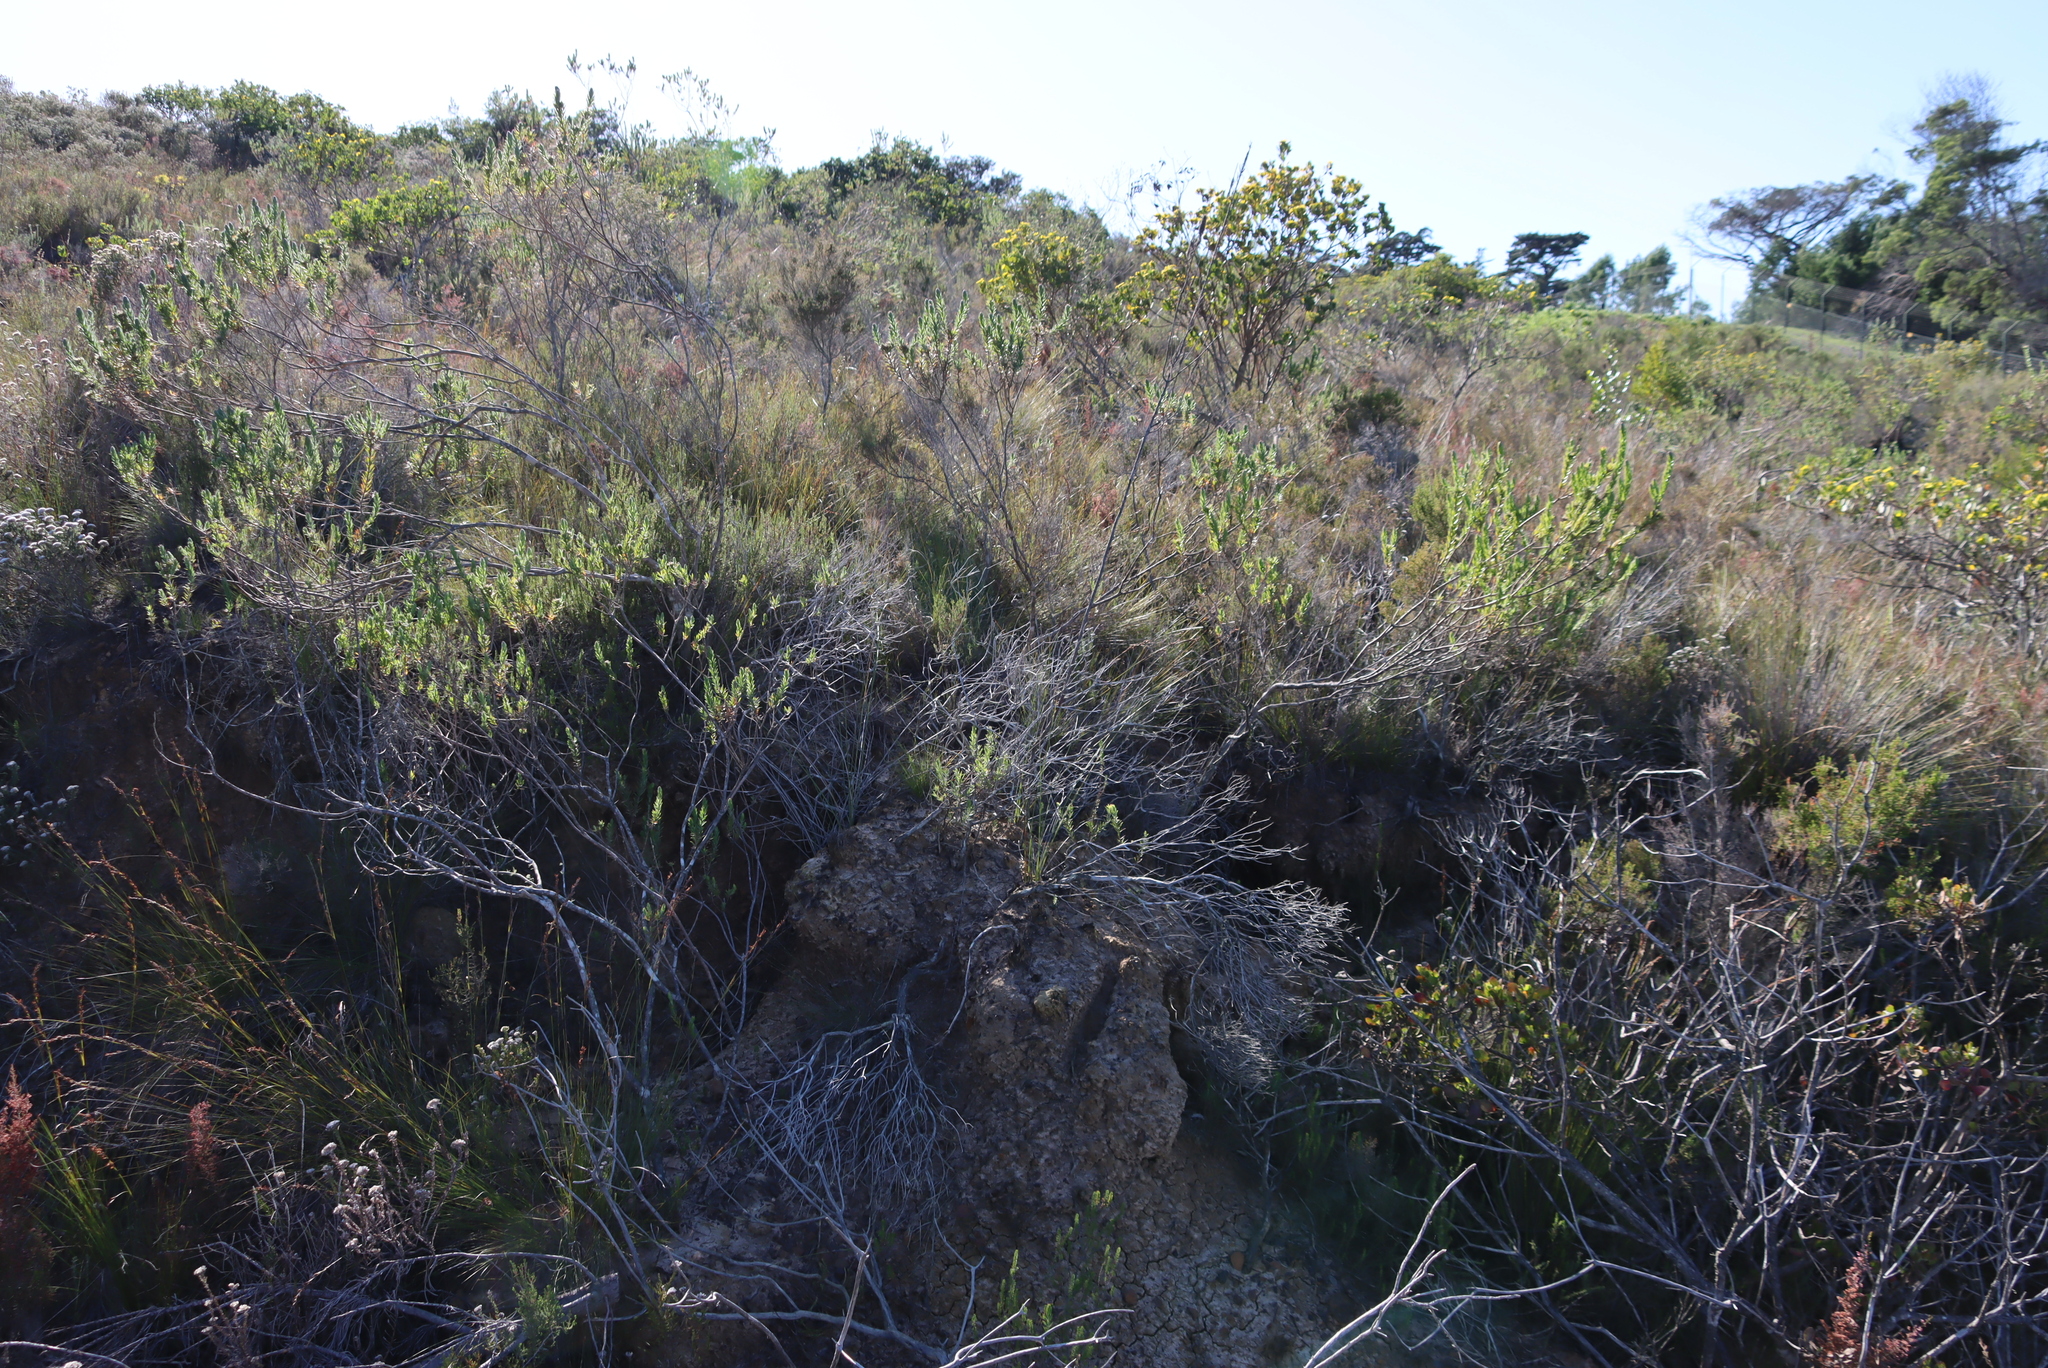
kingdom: Plantae
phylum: Tracheophyta
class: Magnoliopsida
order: Asterales
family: Asteraceae
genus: Oedera
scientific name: Oedera calycina
